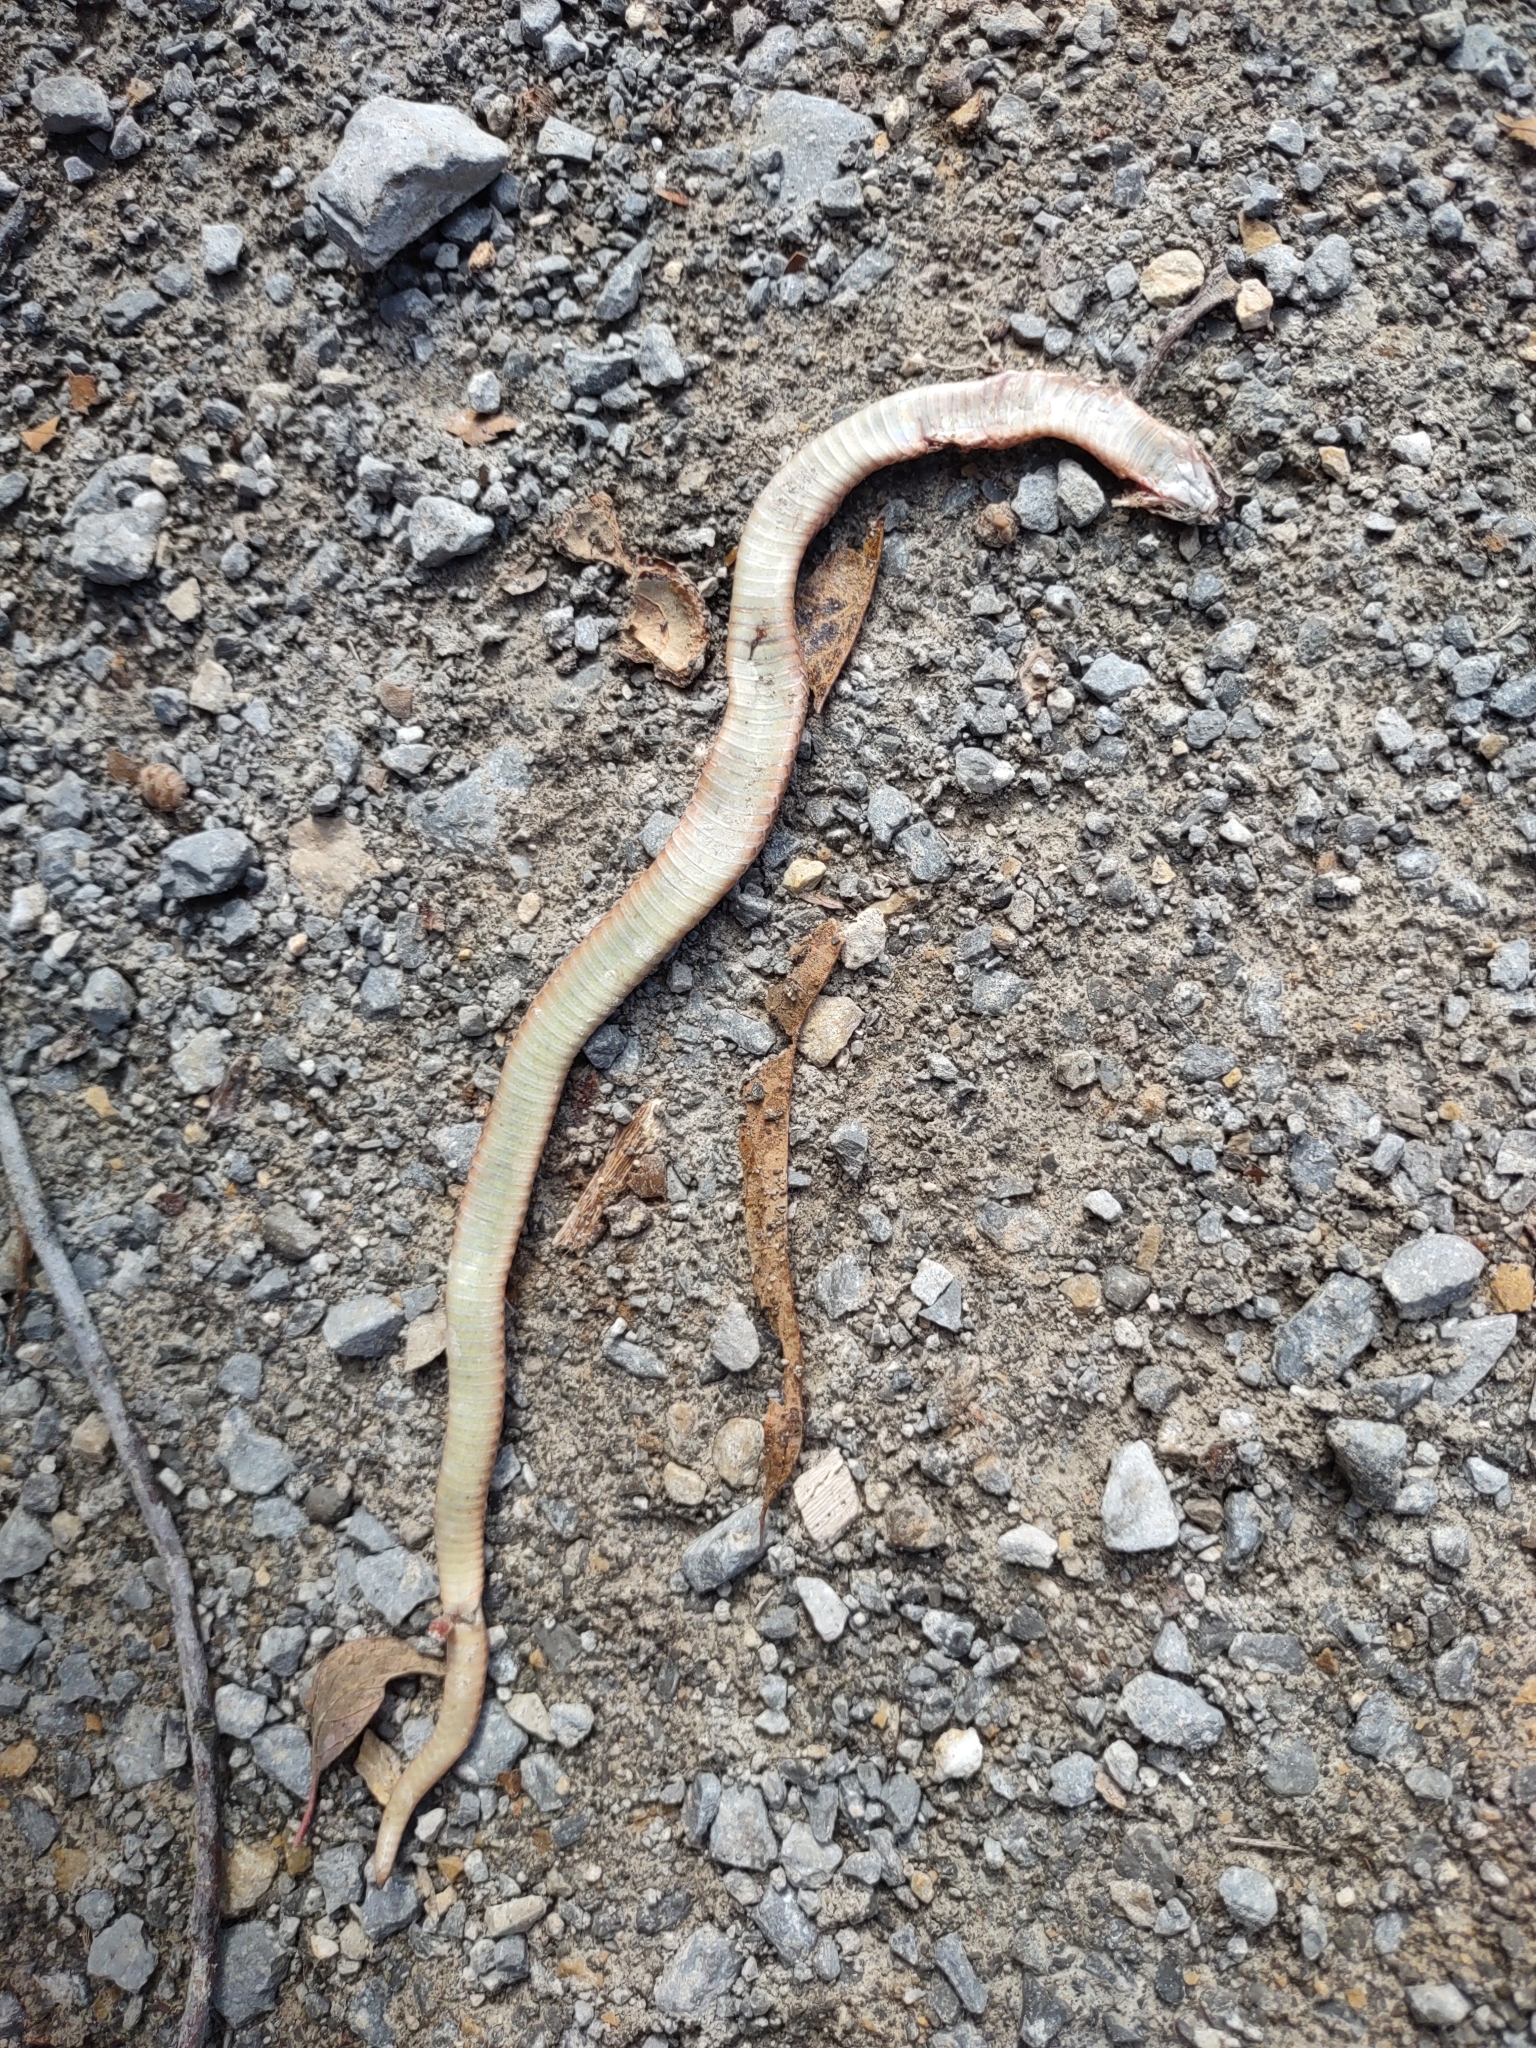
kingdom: Animalia
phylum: Chordata
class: Squamata
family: Colubridae
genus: Virginia
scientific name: Virginia valeriae
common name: Smooth earth snake
